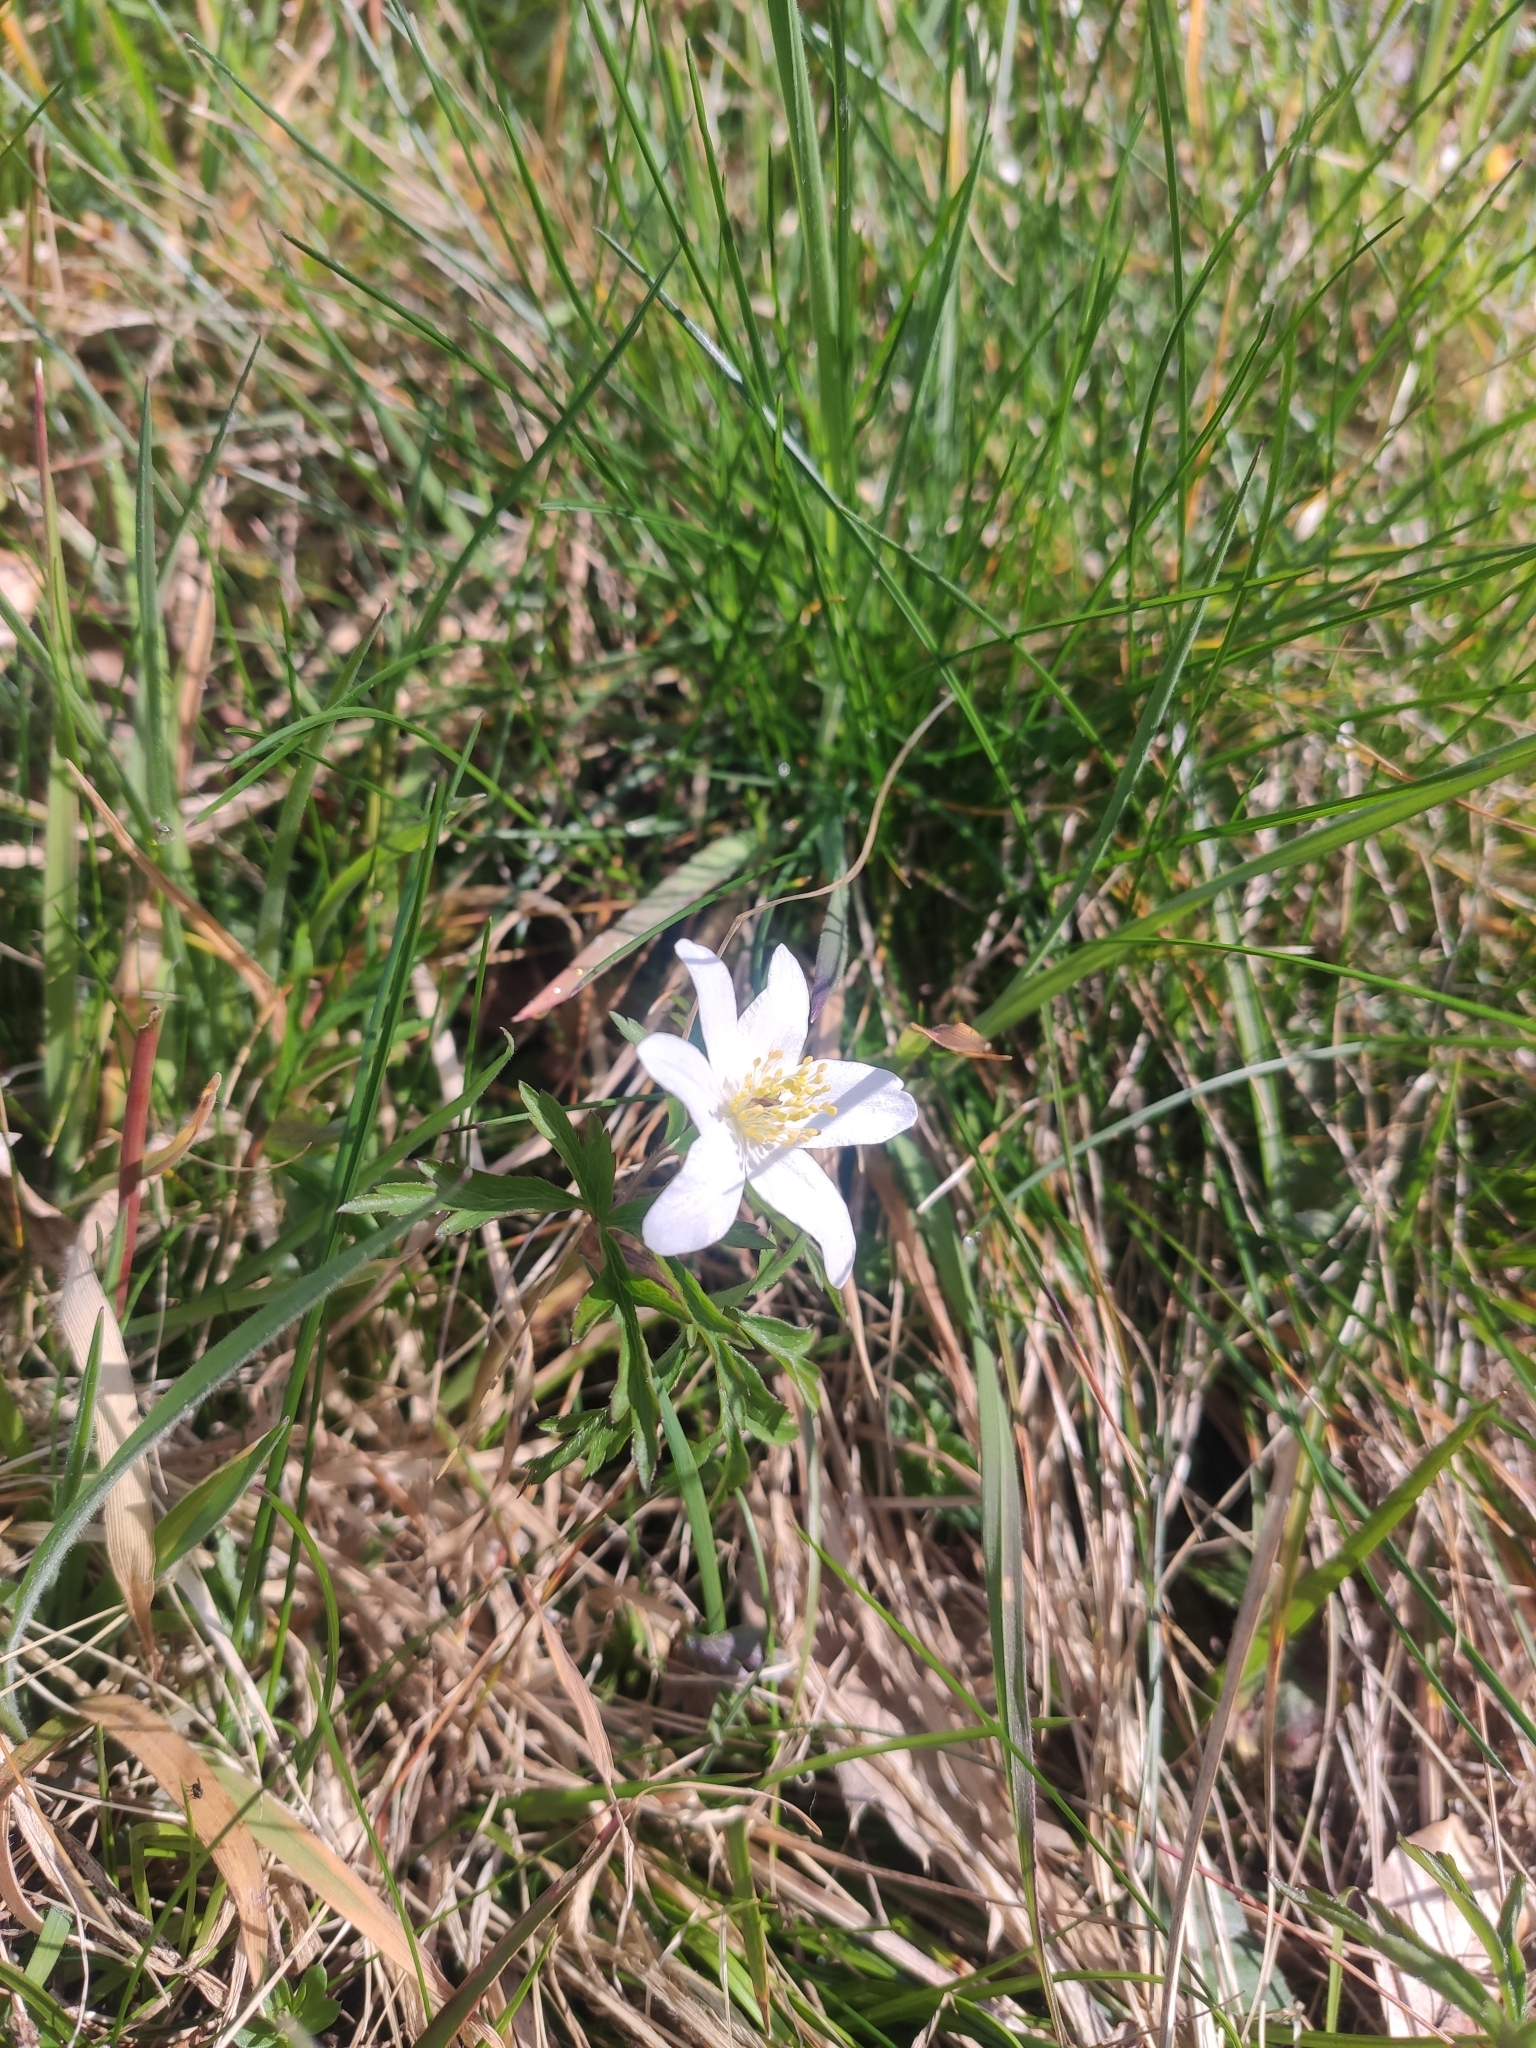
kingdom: Plantae
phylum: Tracheophyta
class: Magnoliopsida
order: Ranunculales
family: Ranunculaceae
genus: Anemone
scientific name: Anemone nemorosa
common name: Wood anemone
